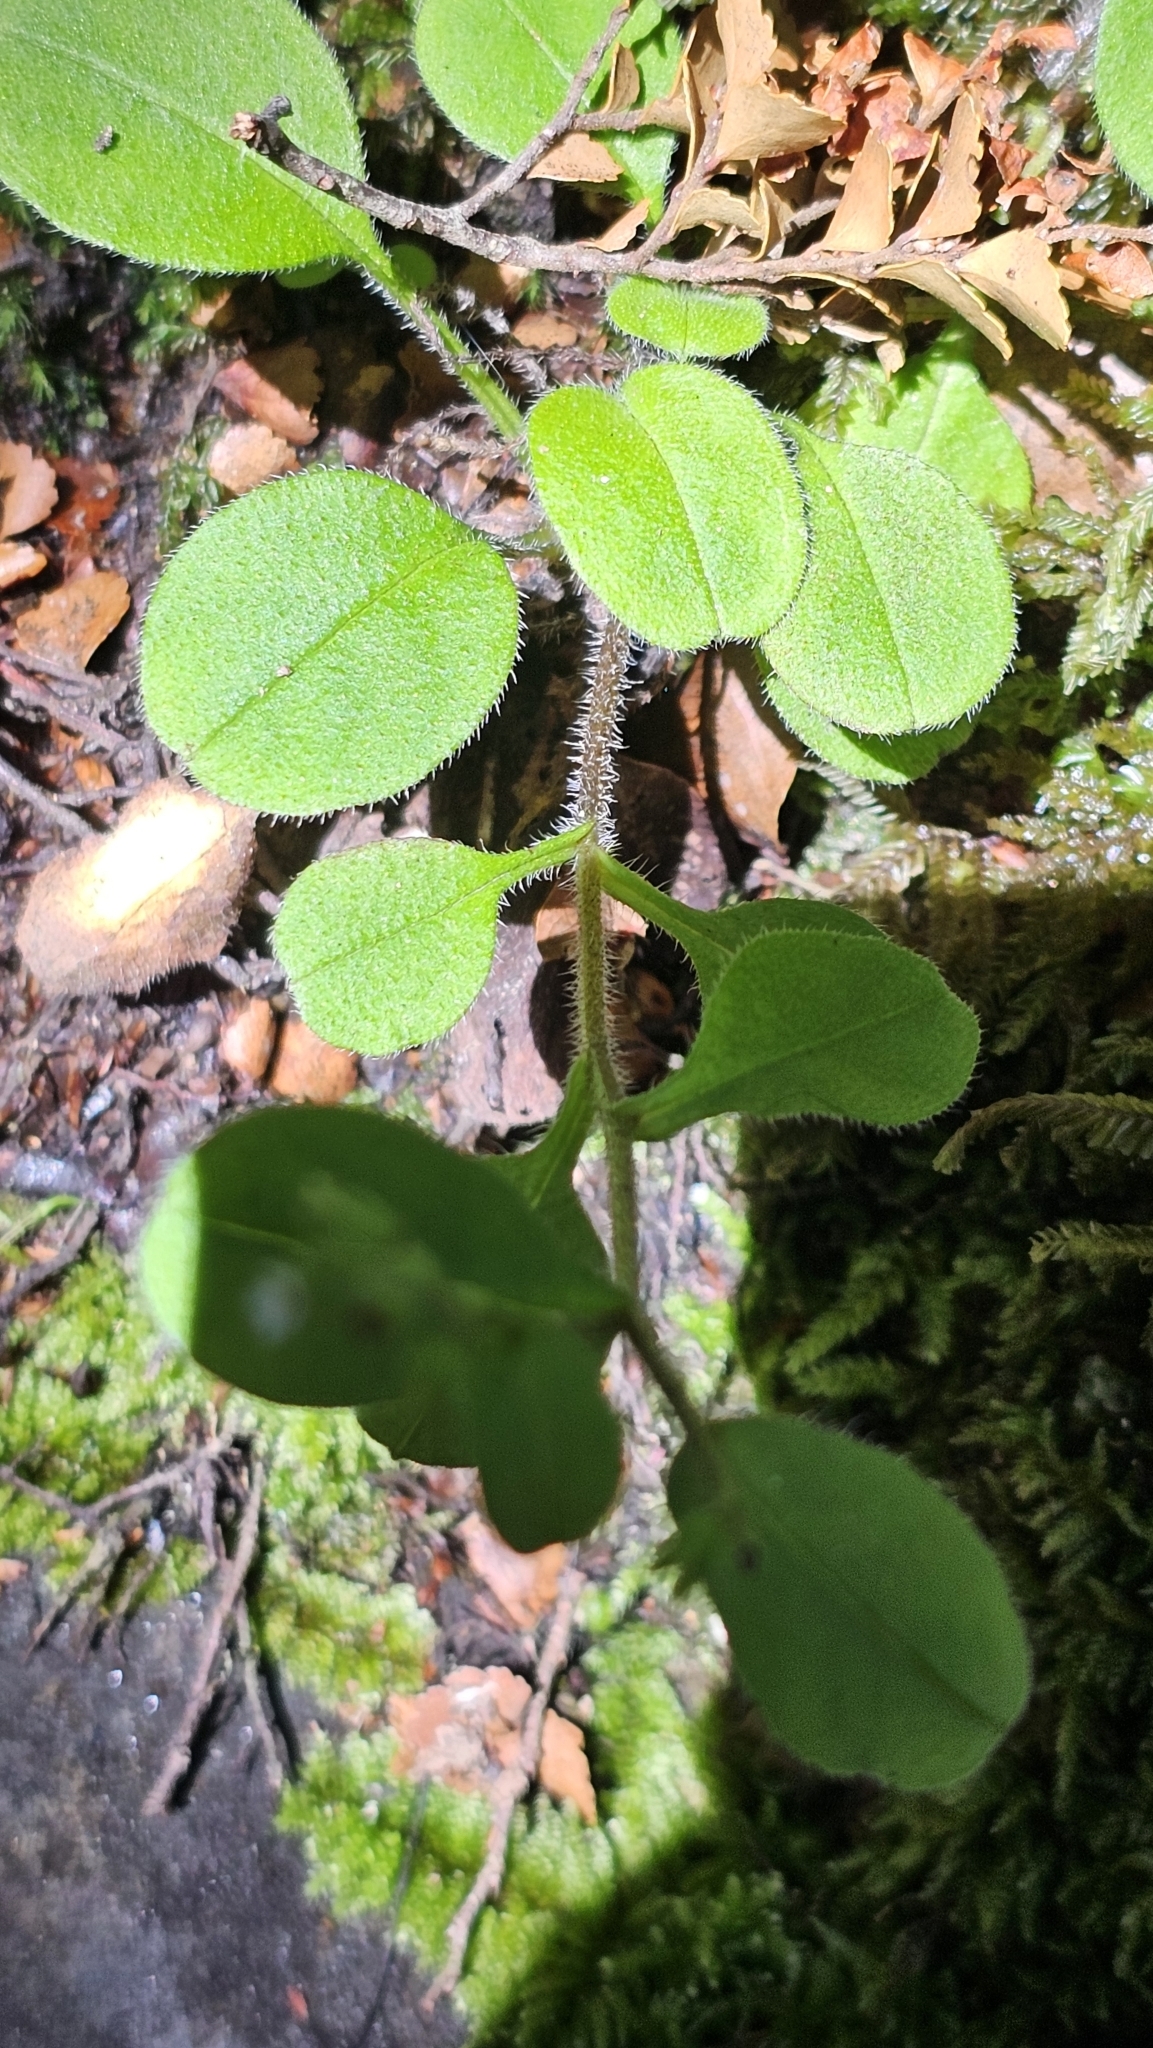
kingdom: Plantae
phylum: Tracheophyta
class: Magnoliopsida
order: Boraginales
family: Boraginaceae
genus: Myosotis
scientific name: Myosotis forsteri
